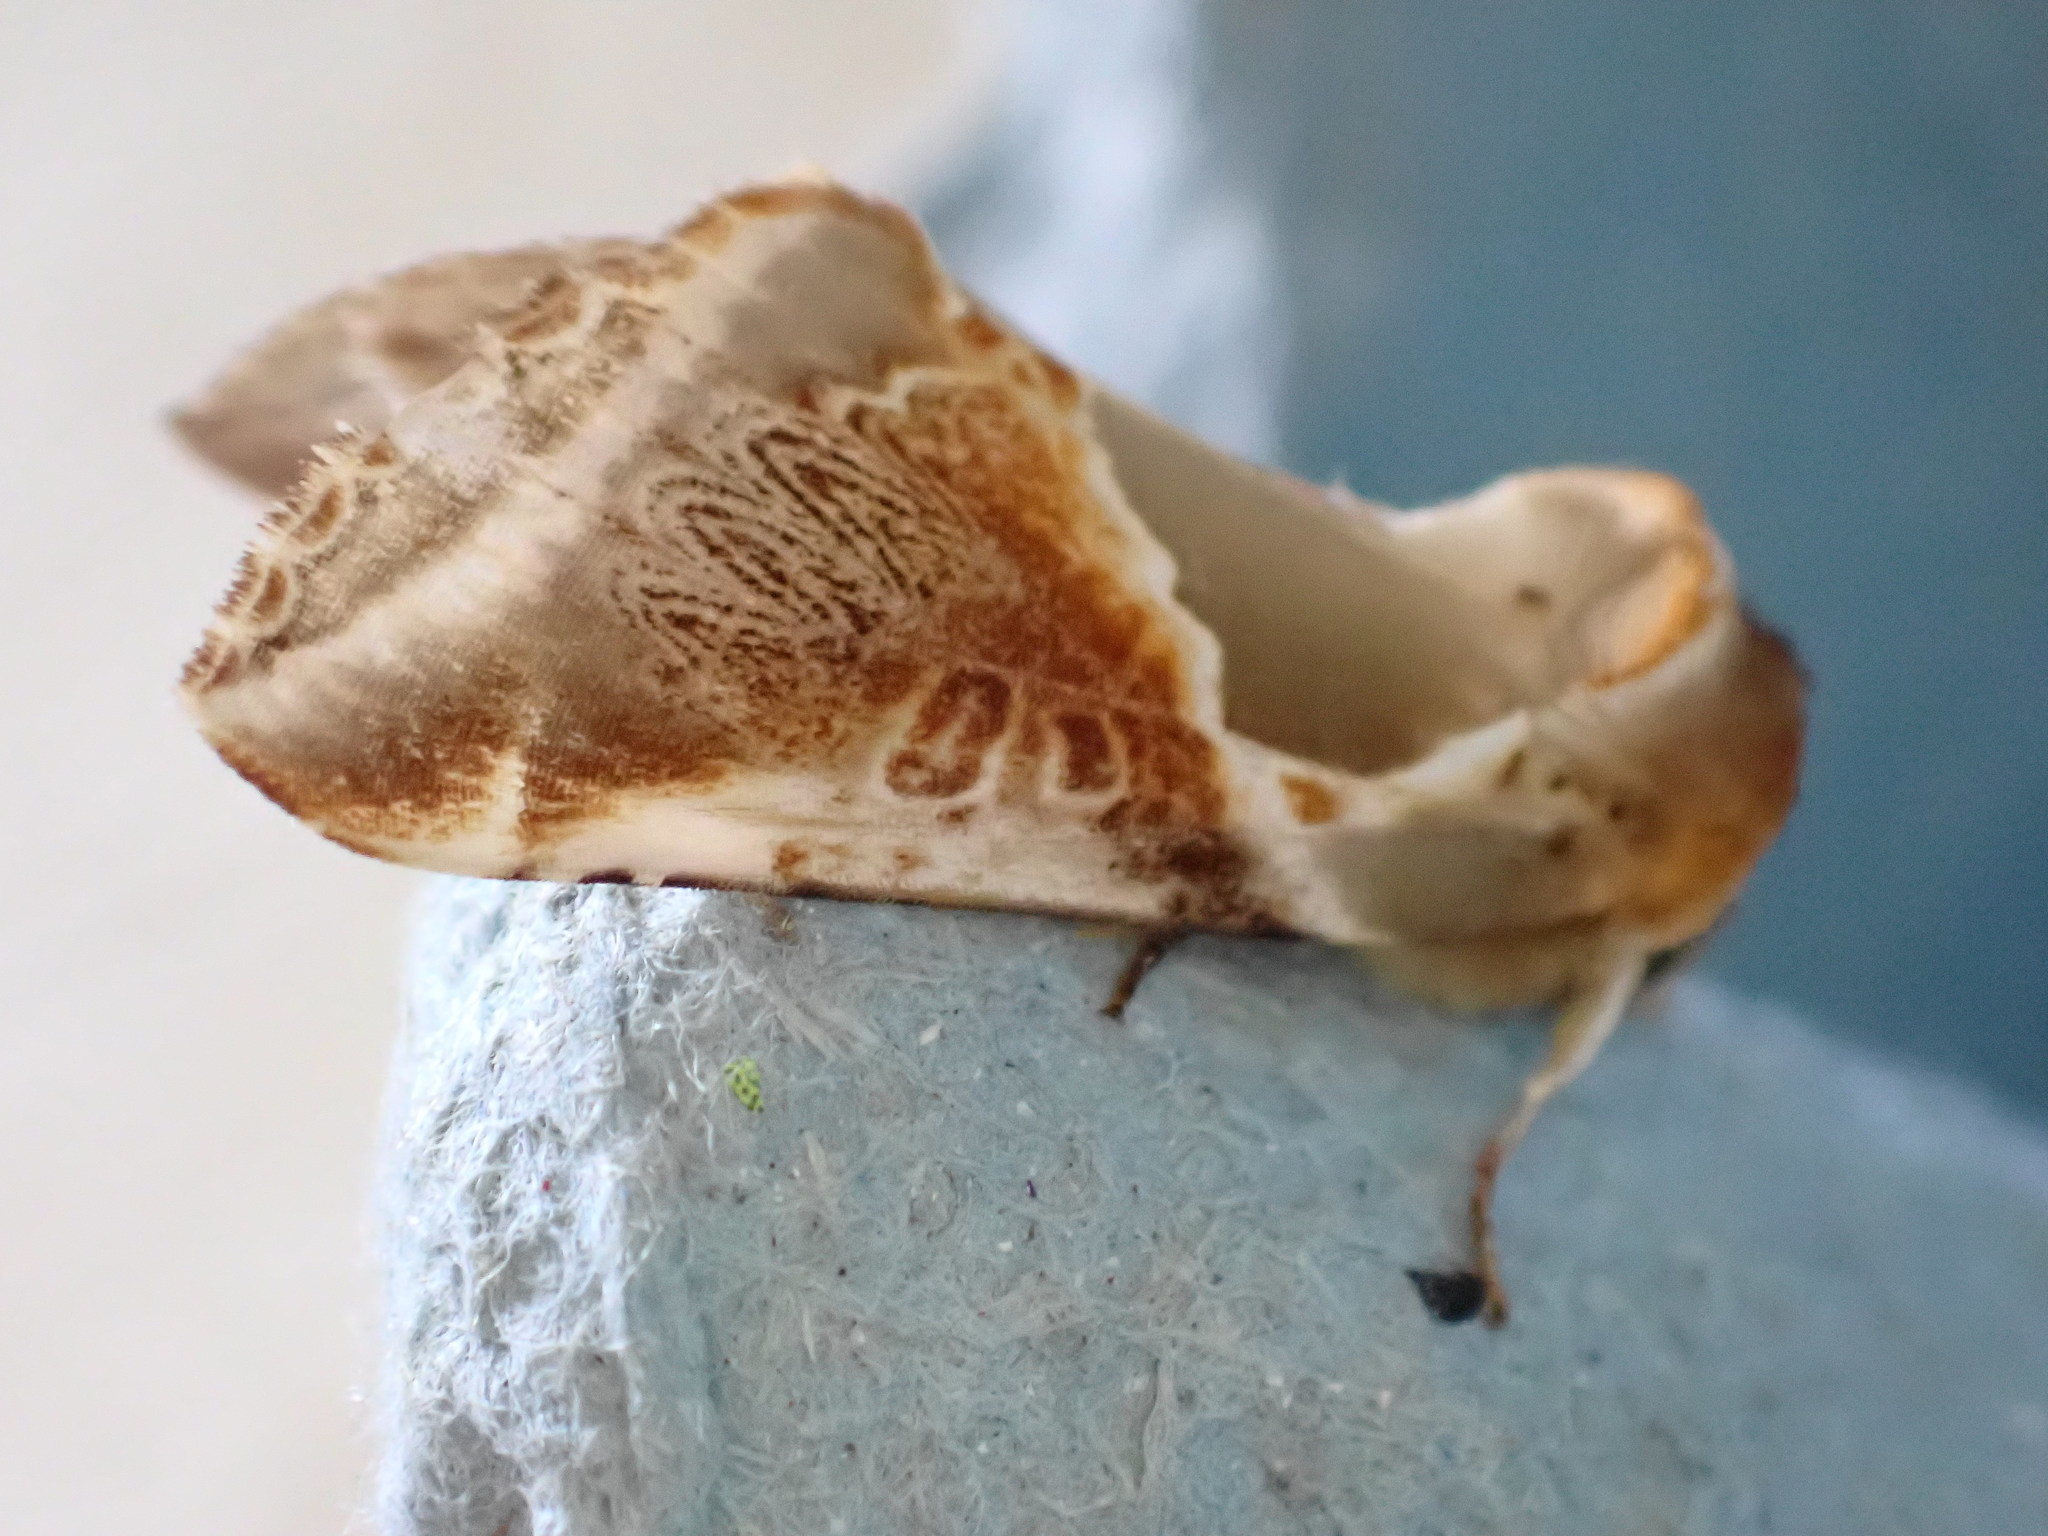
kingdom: Animalia
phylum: Arthropoda
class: Insecta
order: Lepidoptera
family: Drepanidae
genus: Habrosyne
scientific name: Habrosyne pyritoides
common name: Buff arches
